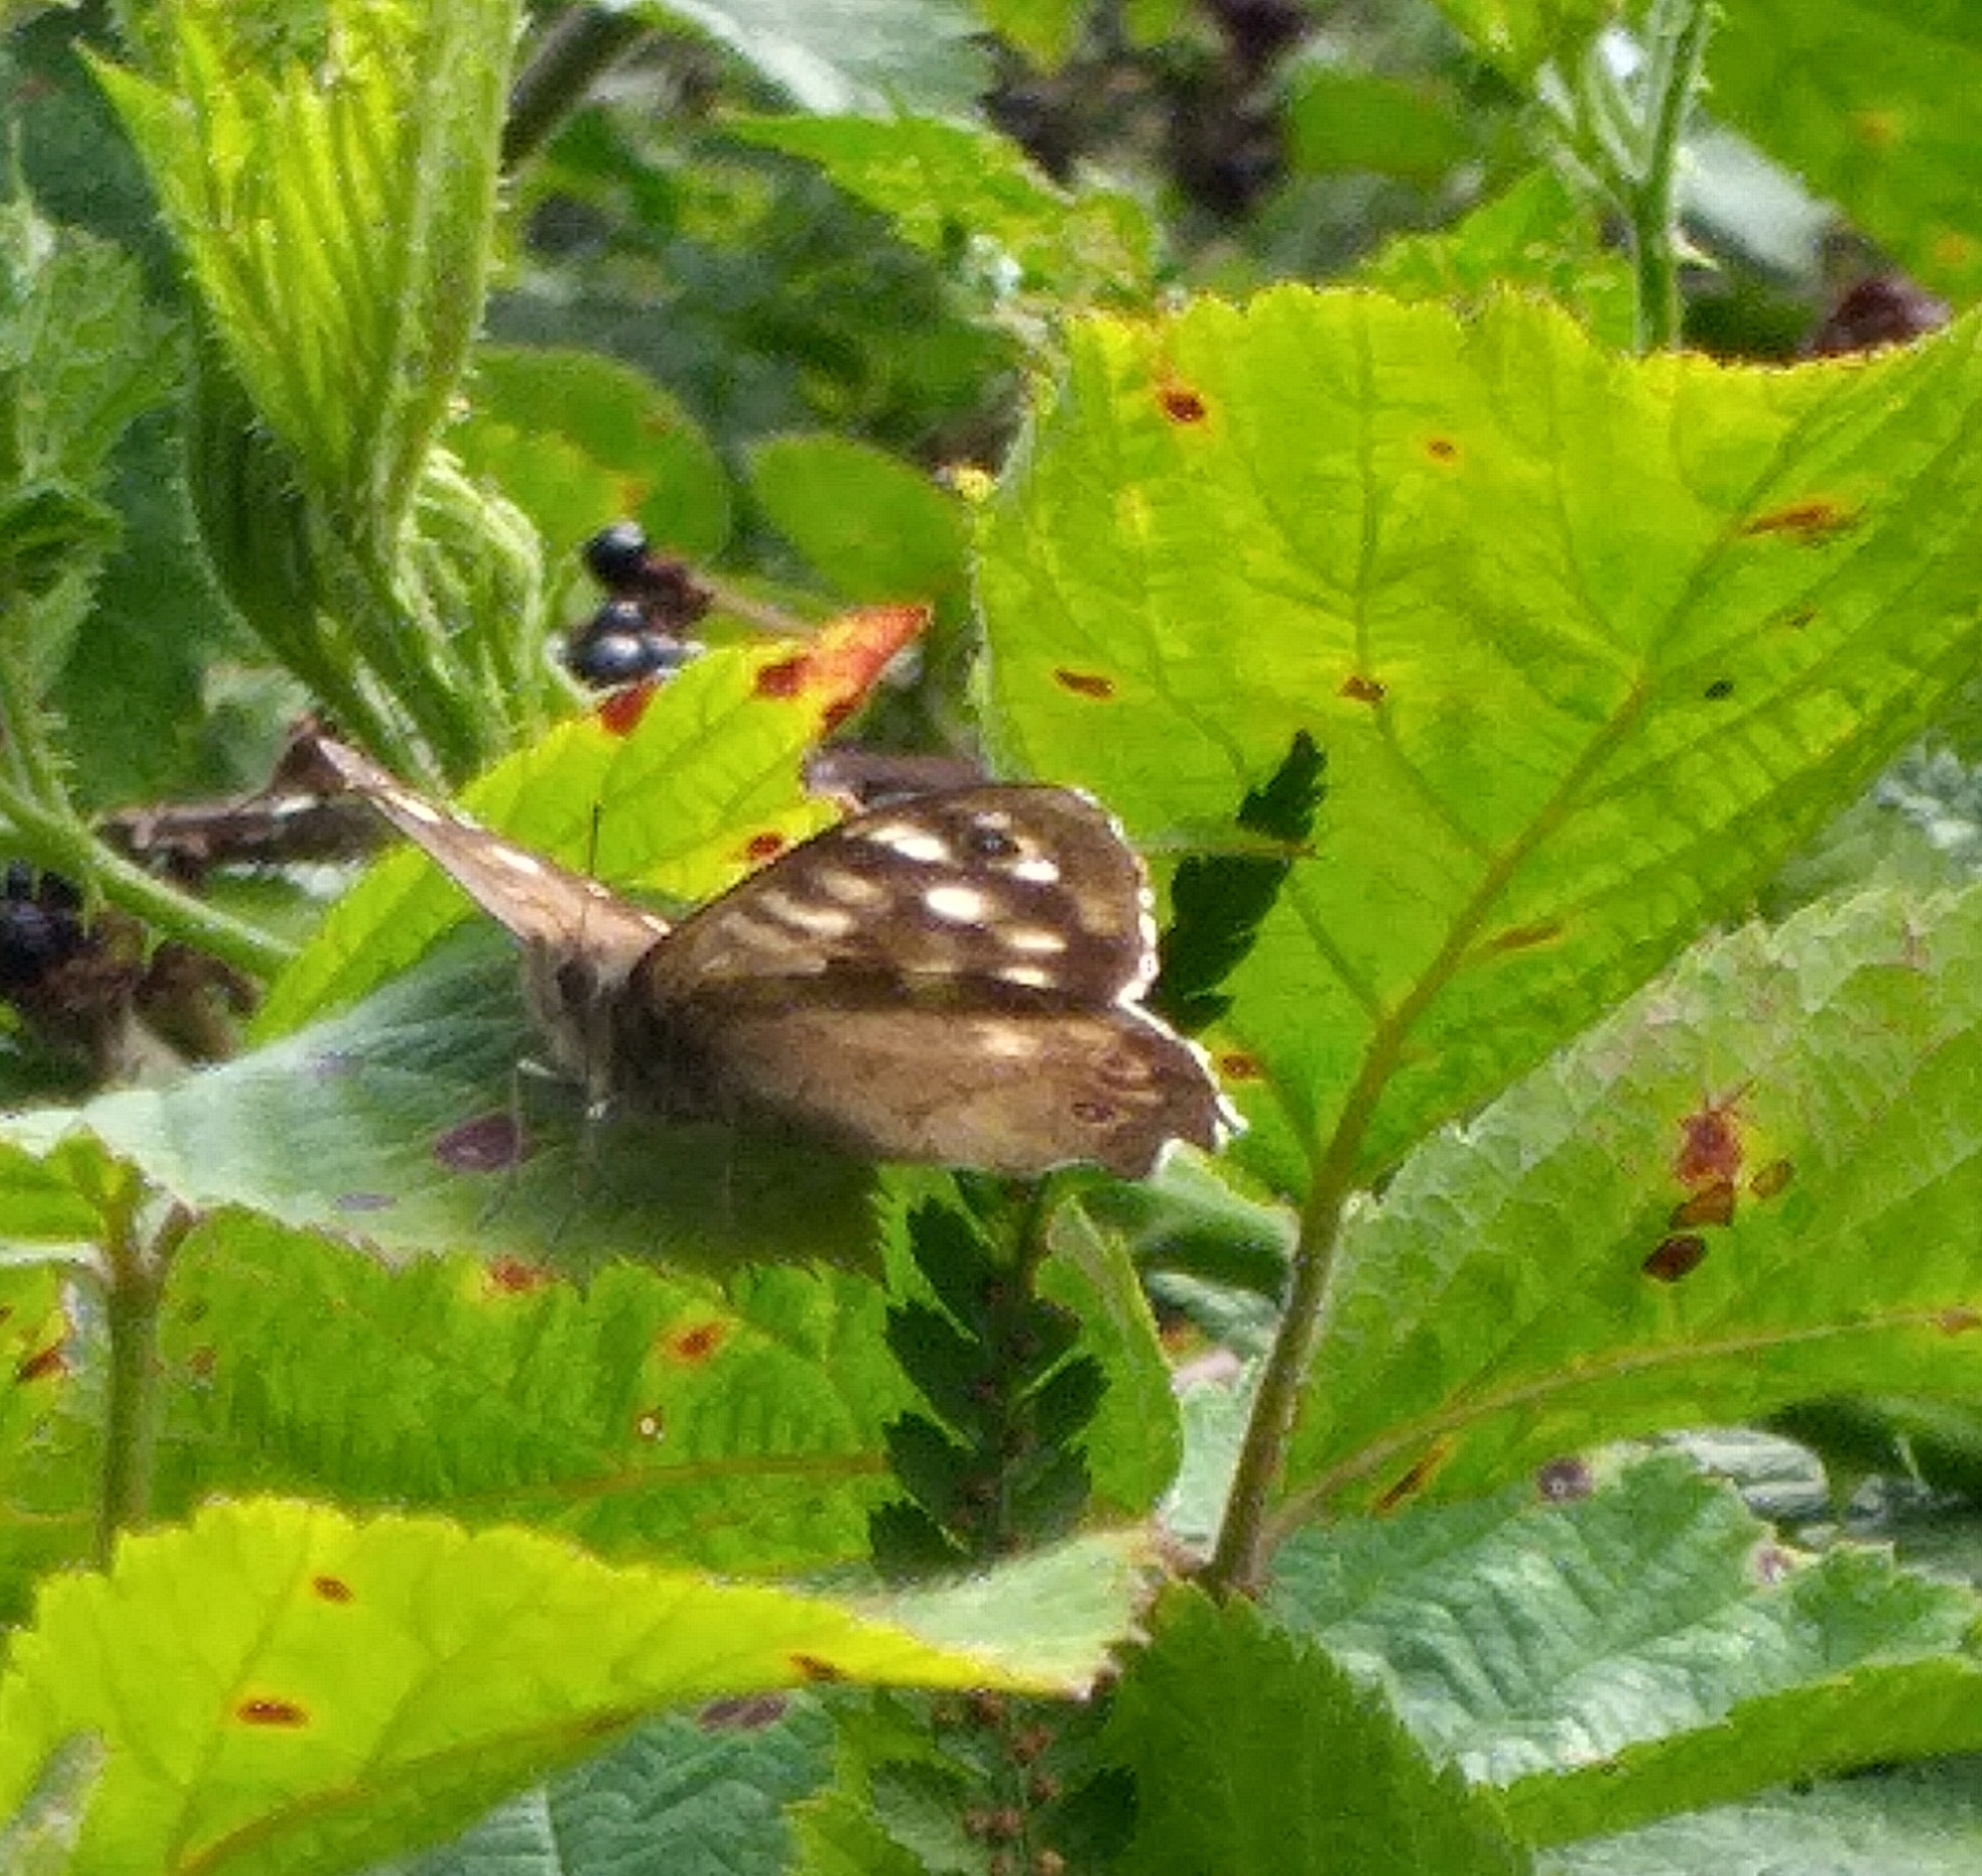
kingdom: Animalia
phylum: Arthropoda
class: Insecta
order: Lepidoptera
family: Nymphalidae
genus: Pararge
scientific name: Pararge aegeria
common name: Speckled wood
